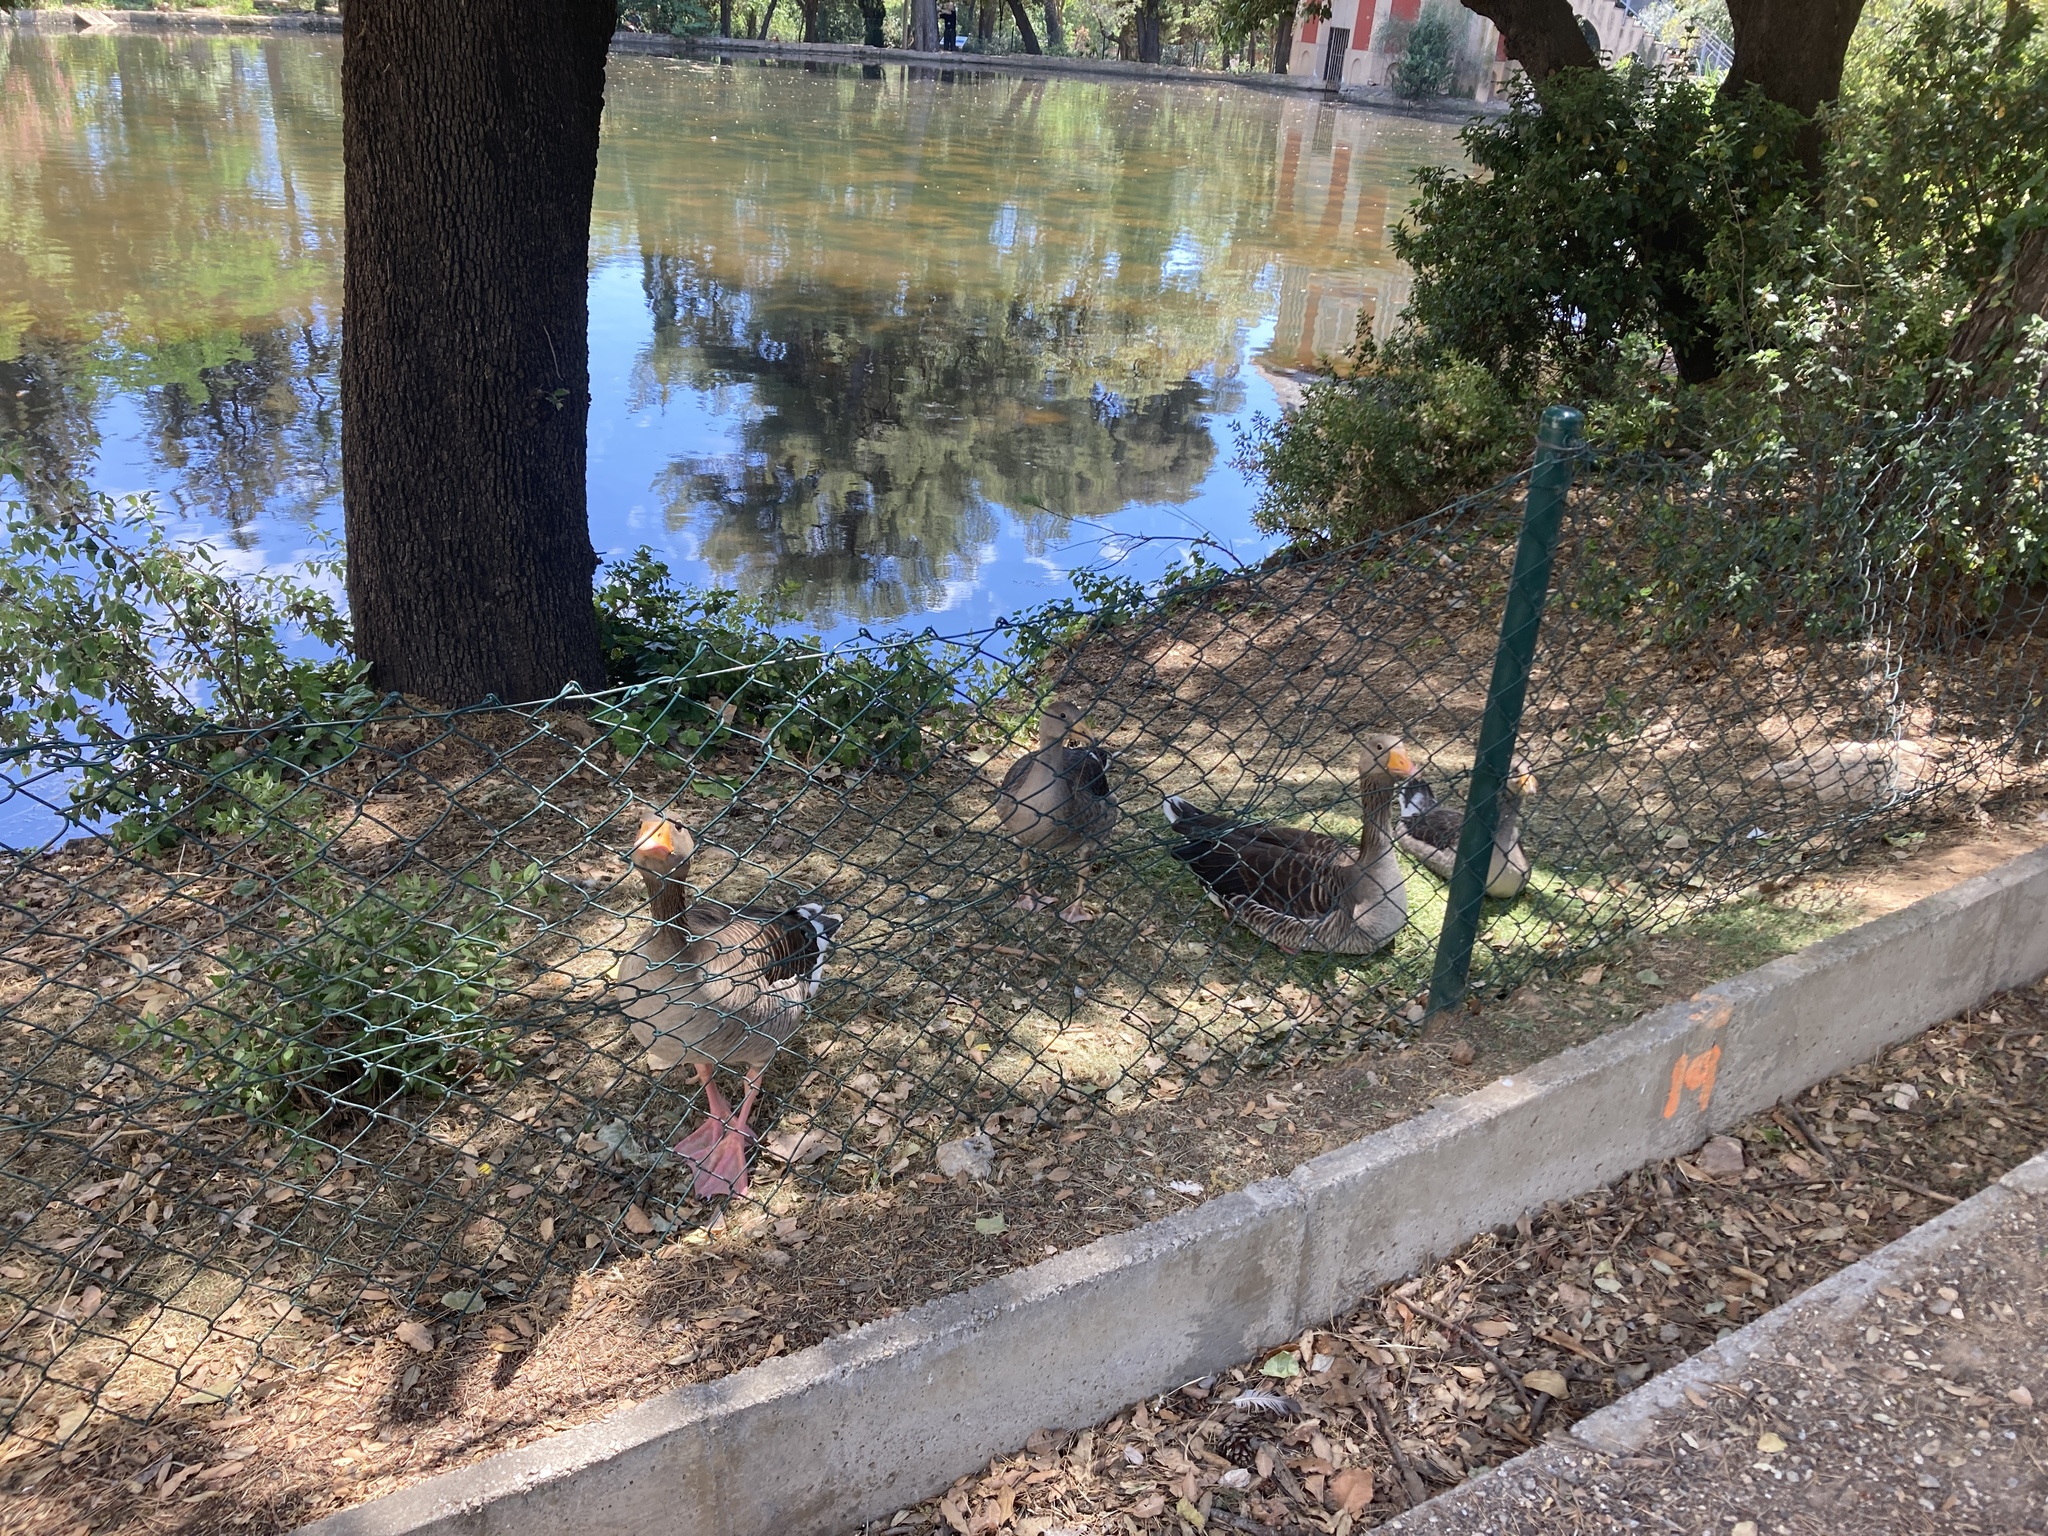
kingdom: Animalia
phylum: Chordata
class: Aves
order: Anseriformes
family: Anatidae
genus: Anser
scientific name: Anser anser
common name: Greylag goose
